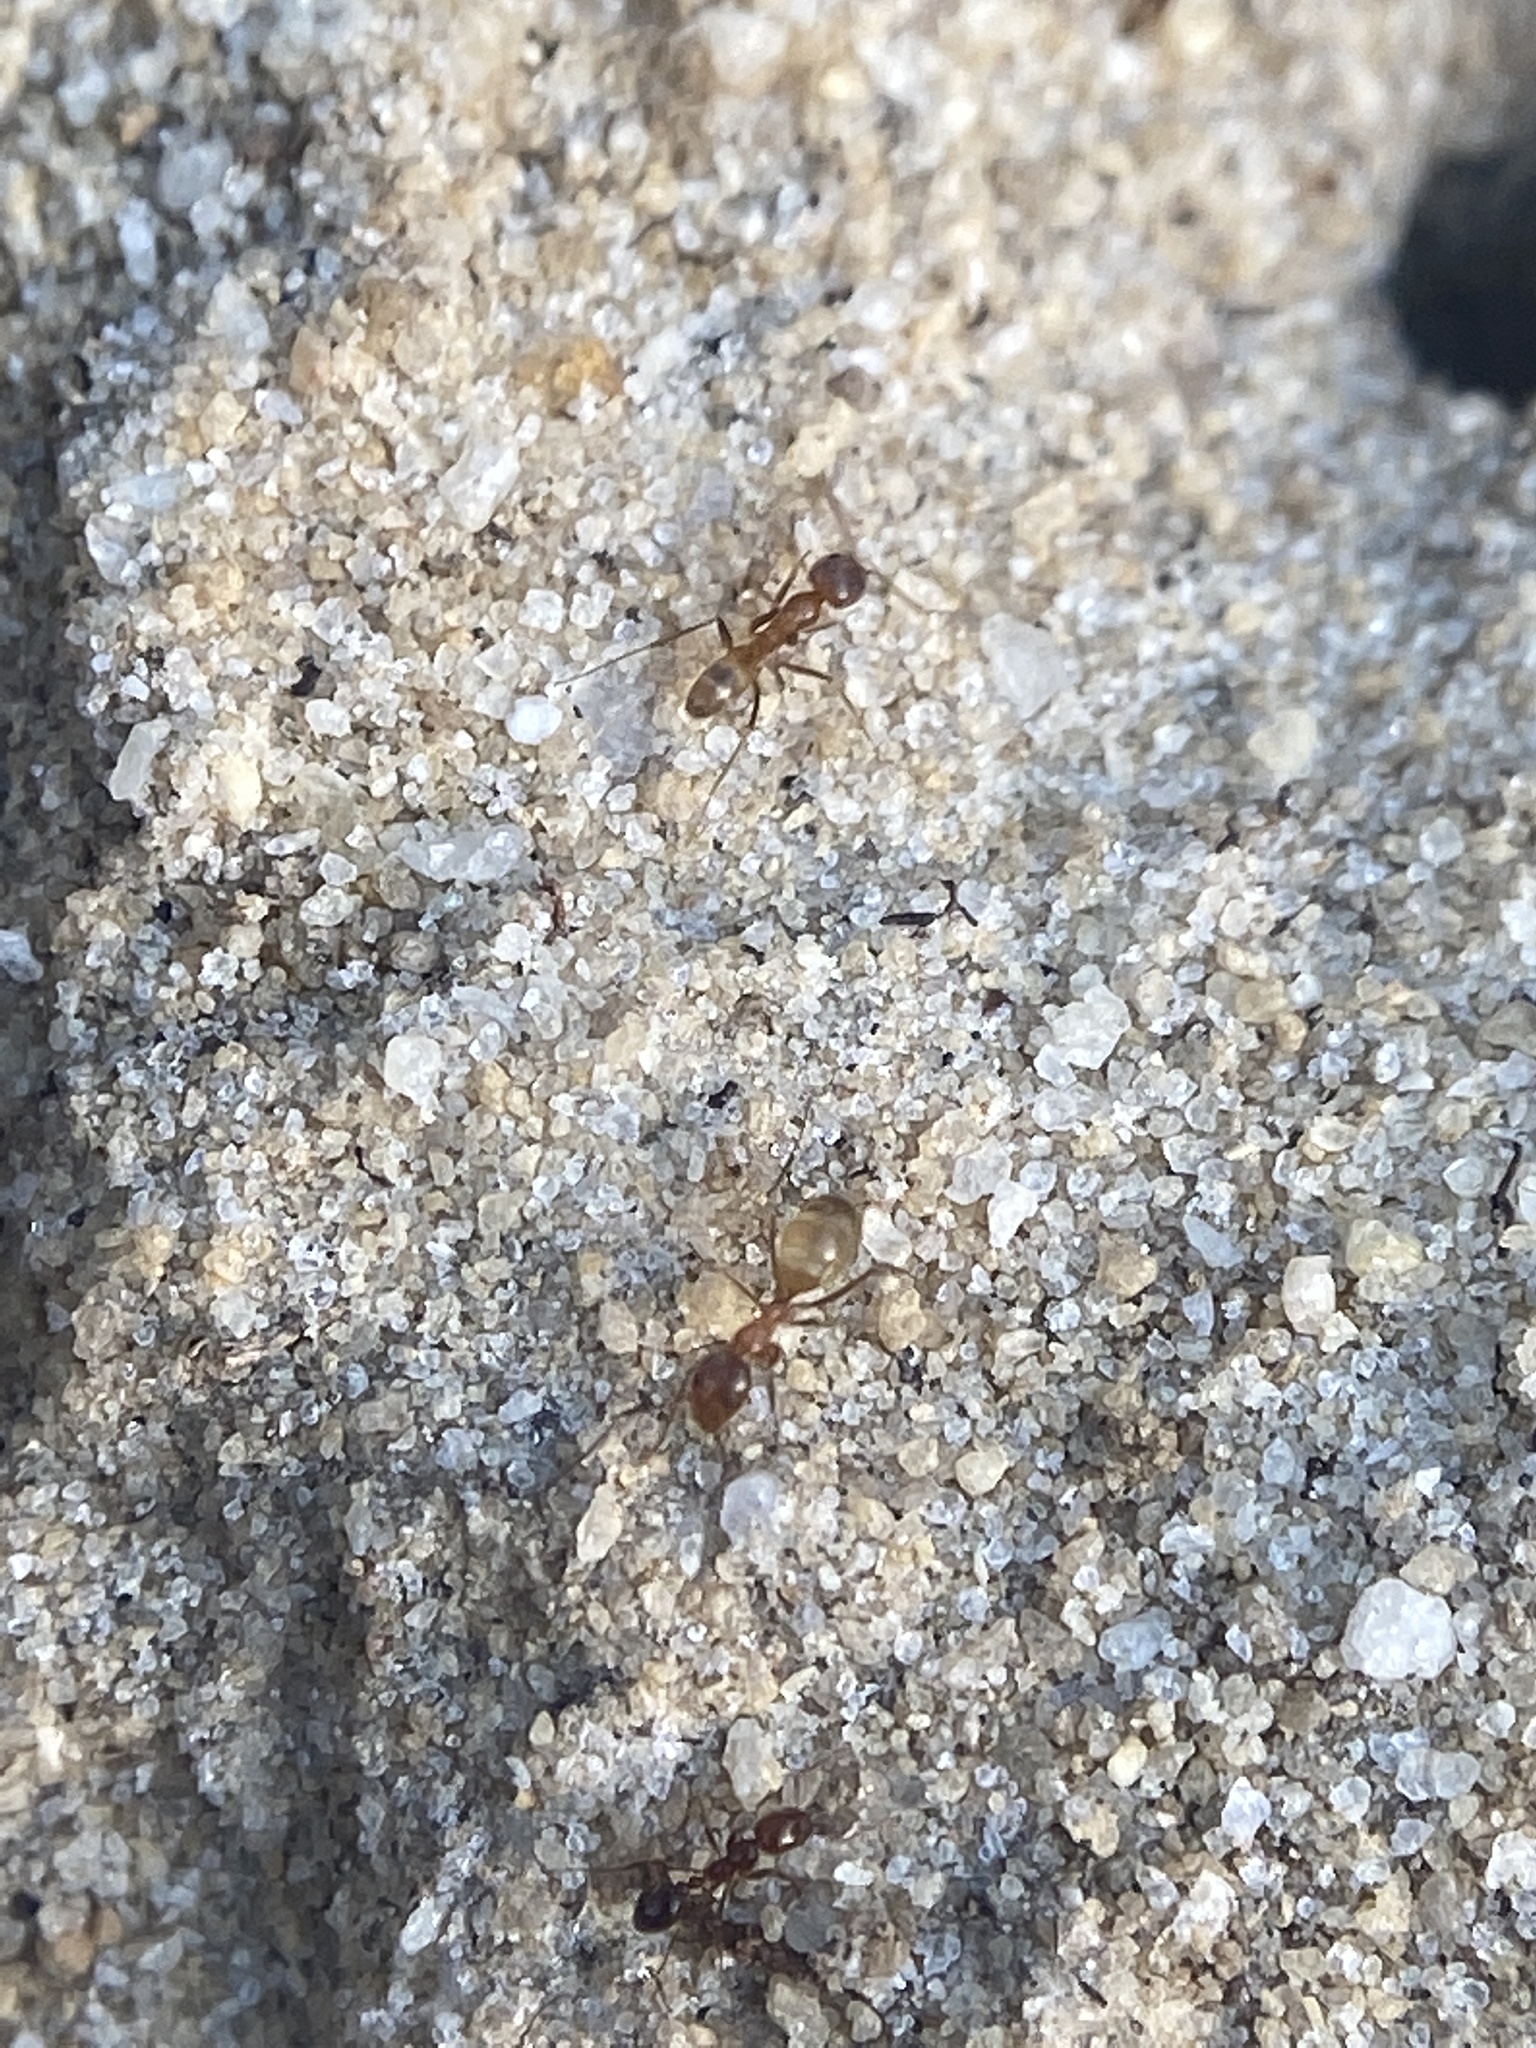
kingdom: Animalia
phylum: Arthropoda
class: Insecta
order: Hymenoptera
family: Formicidae
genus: Dorymyrmex
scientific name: Dorymyrmex bureni
